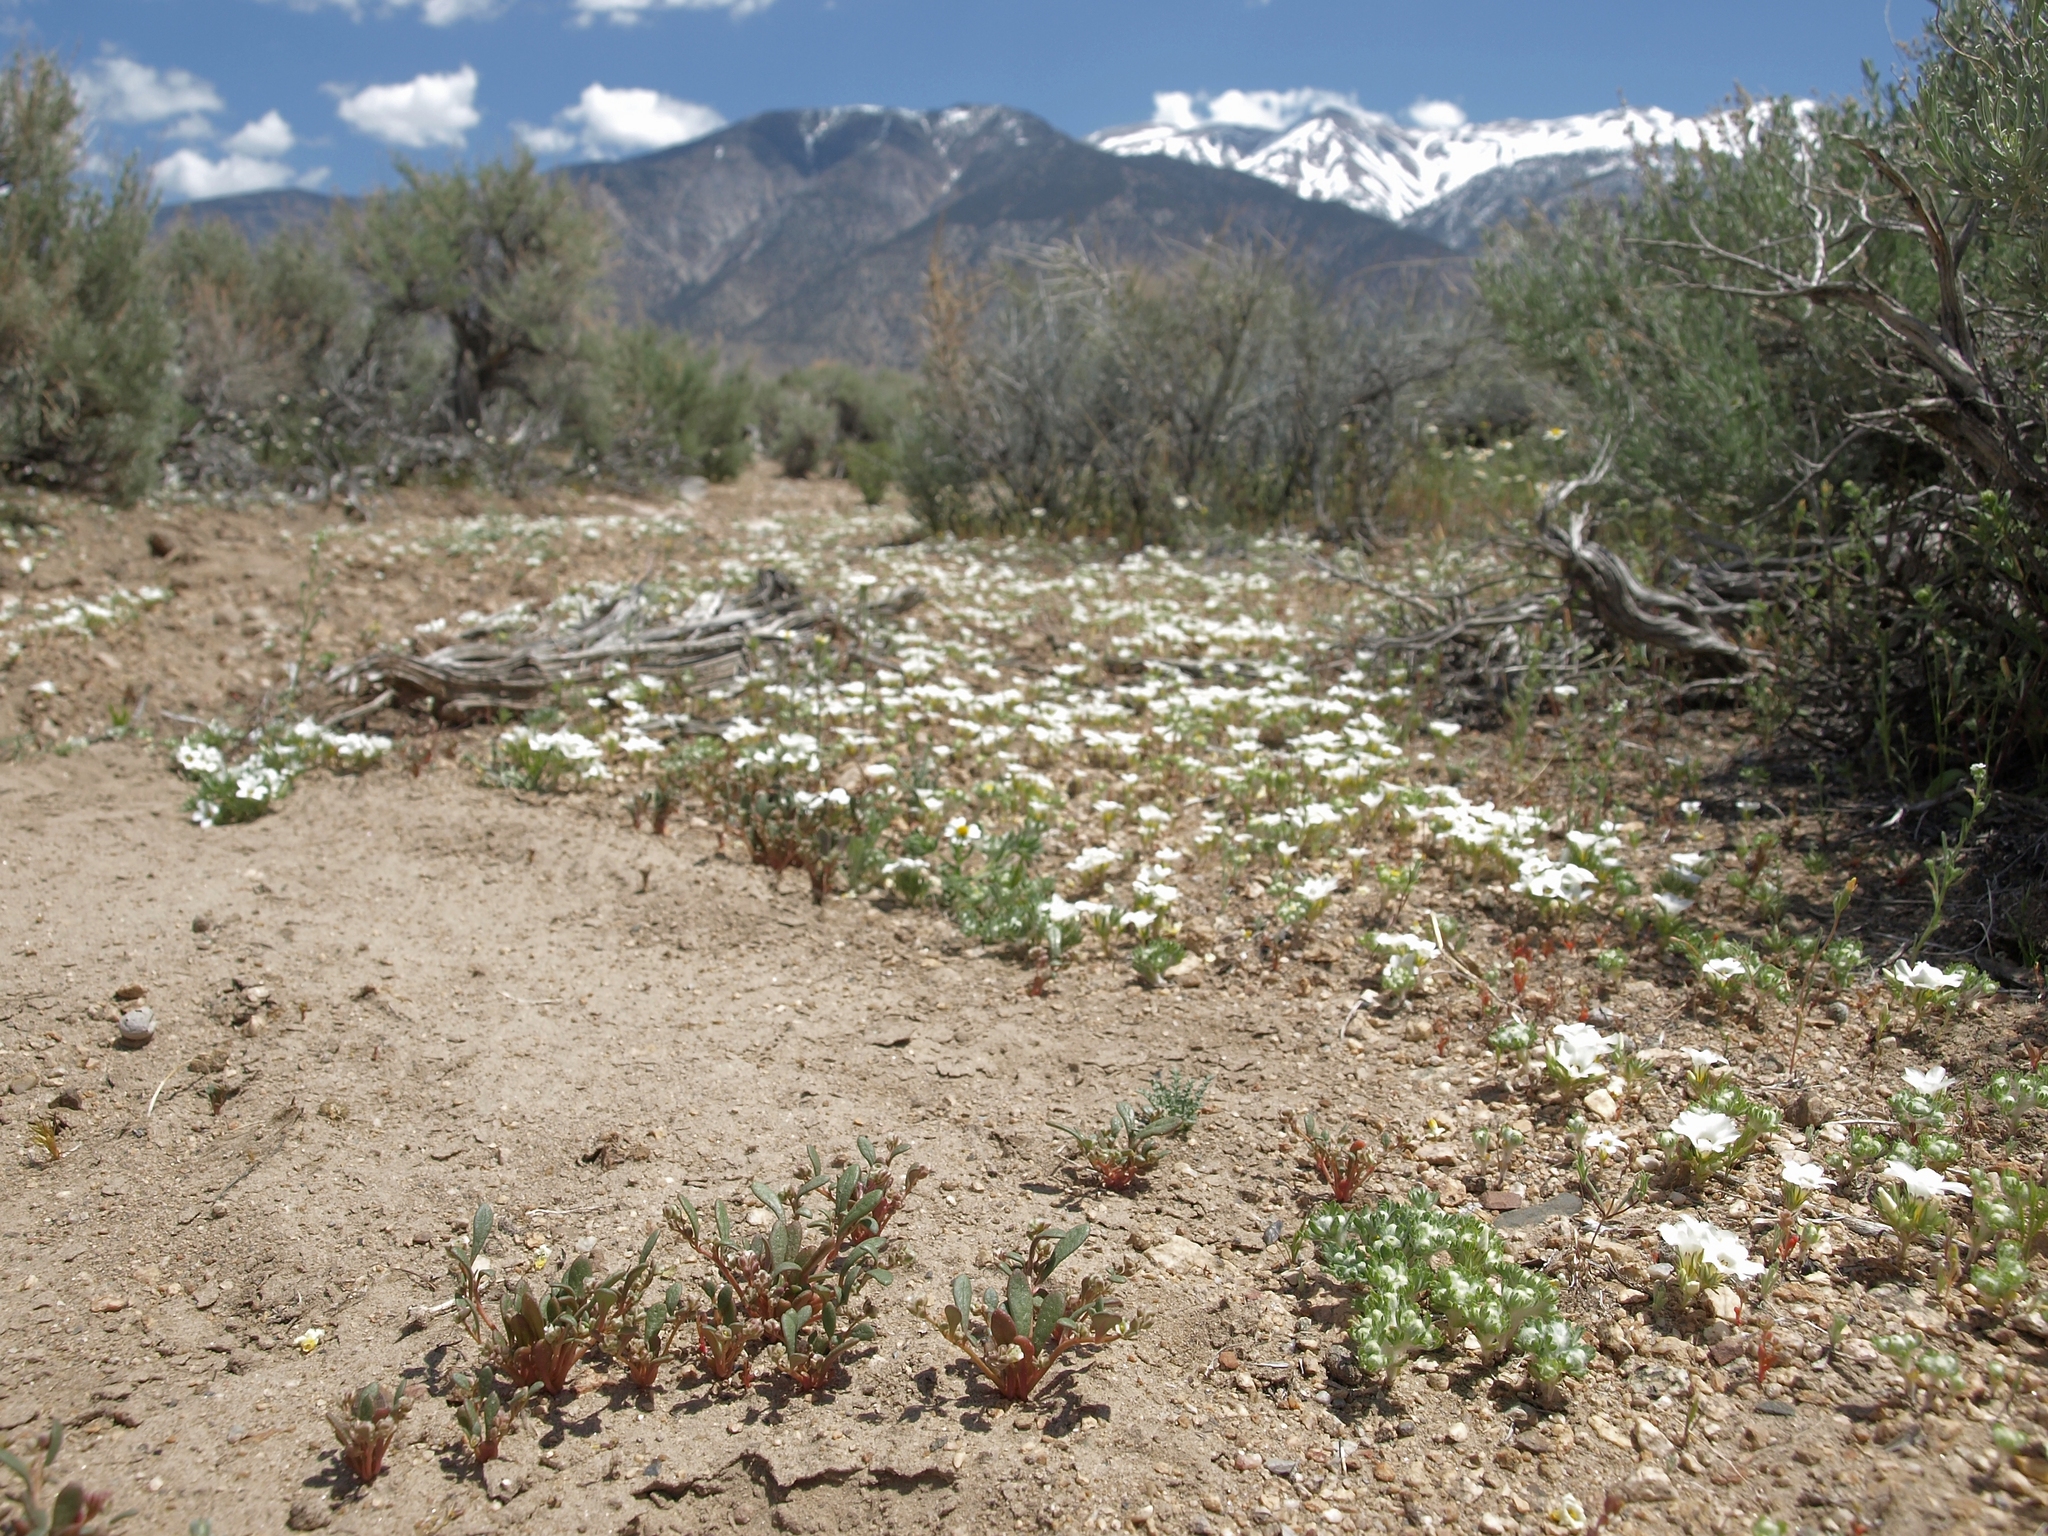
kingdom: Plantae
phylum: Tracheophyta
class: Magnoliopsida
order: Ericales
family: Polemoniaceae
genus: Linanthus
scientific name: Linanthus parryae
